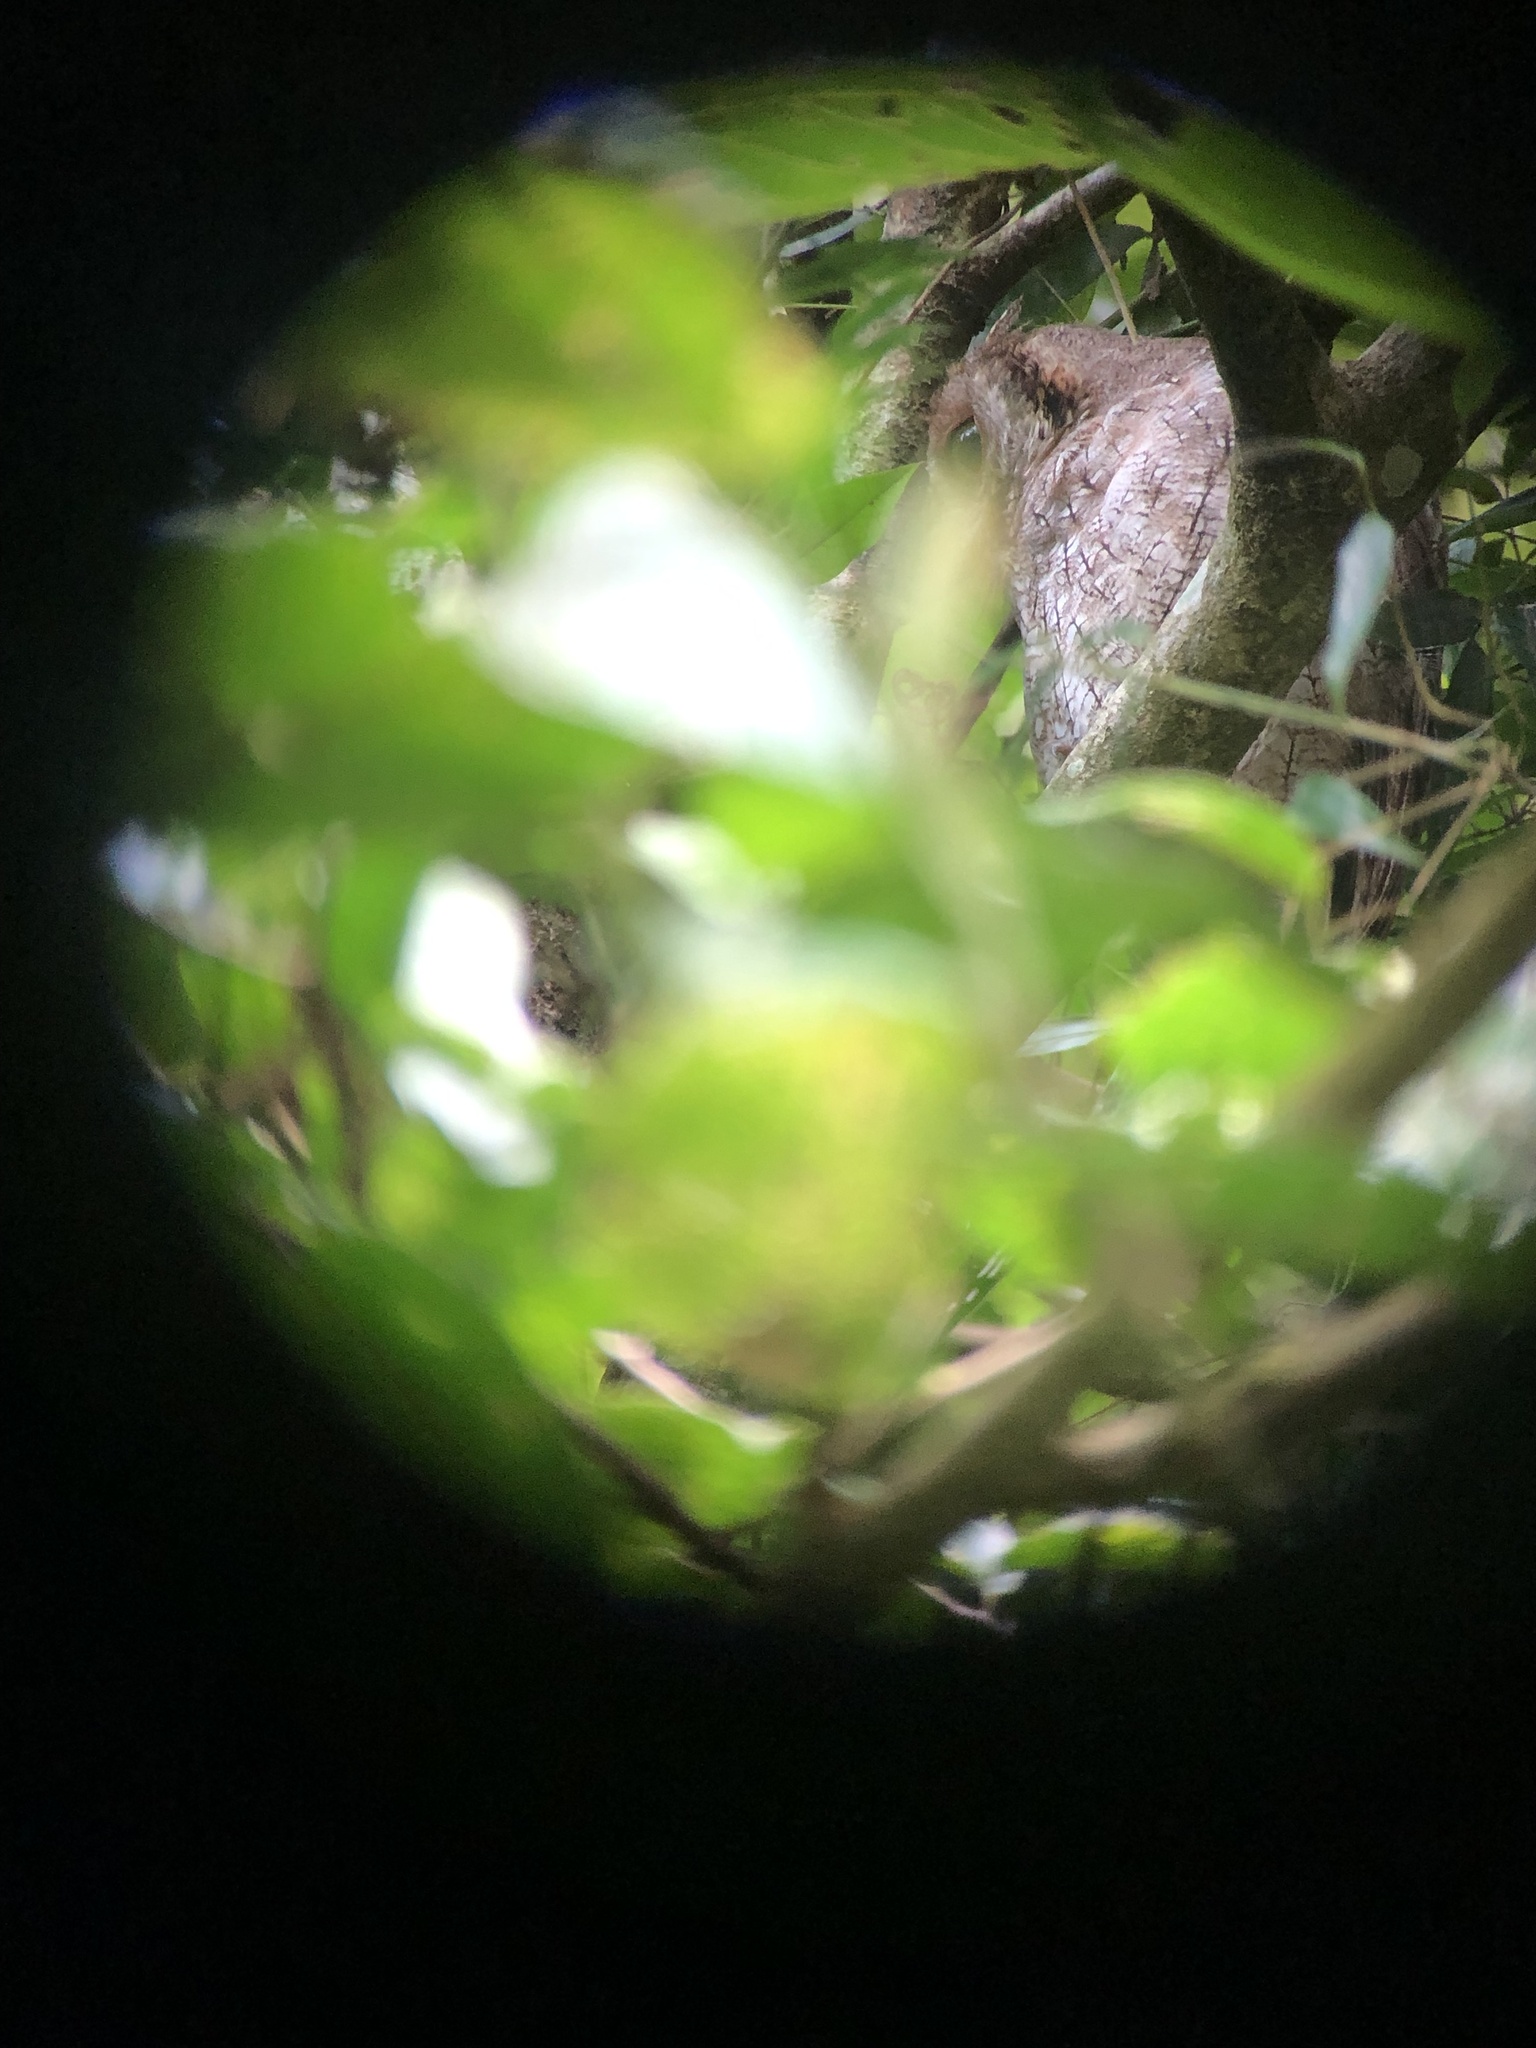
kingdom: Animalia
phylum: Chordata
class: Aves
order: Strigiformes
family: Strigidae
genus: Megascops
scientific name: Megascops choliba
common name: Tropical screech-owl
